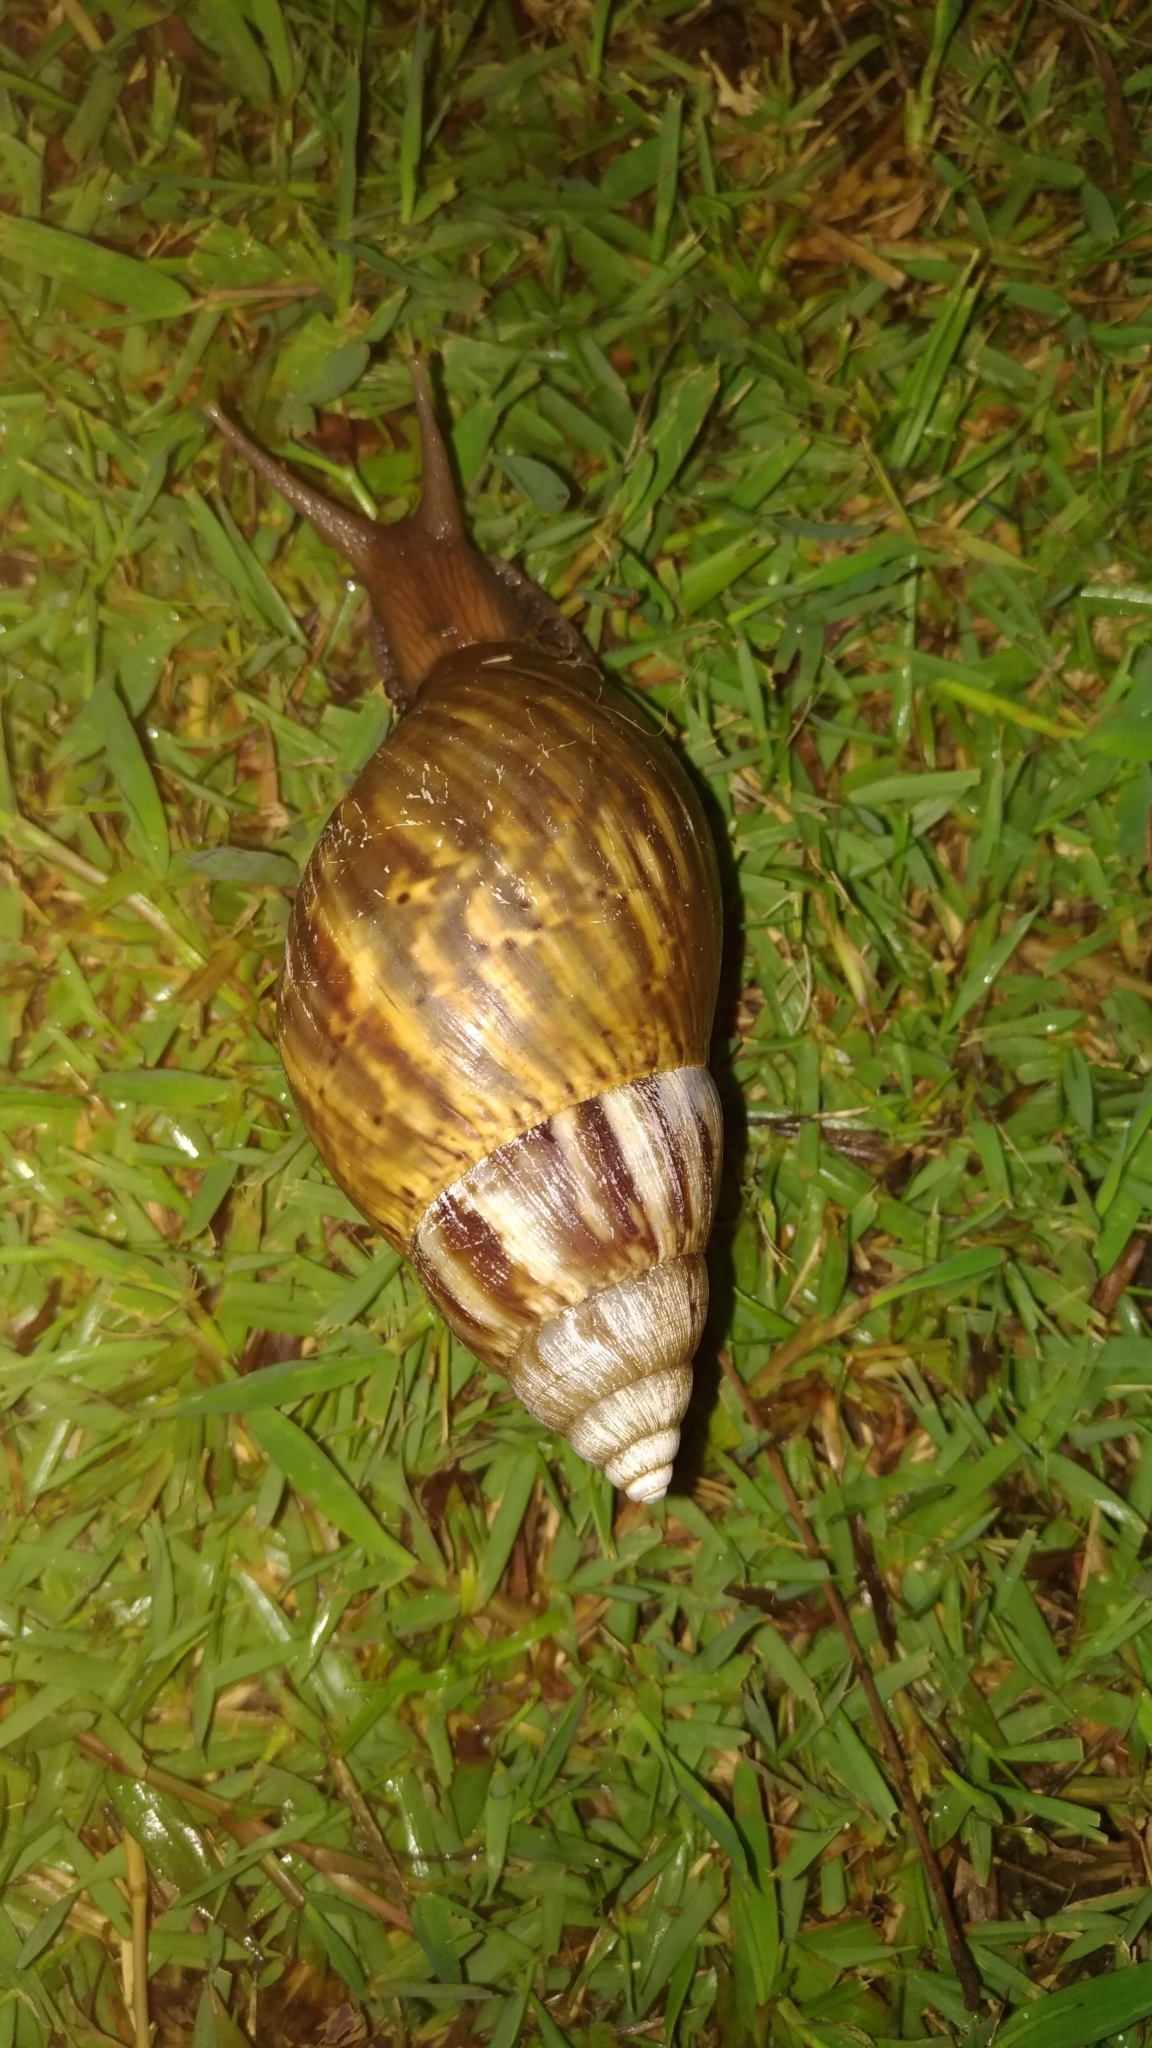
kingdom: Animalia
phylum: Mollusca
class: Gastropoda
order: Stylommatophora
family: Achatinidae
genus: Lissachatina
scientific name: Lissachatina fulica
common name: Giant african snail
